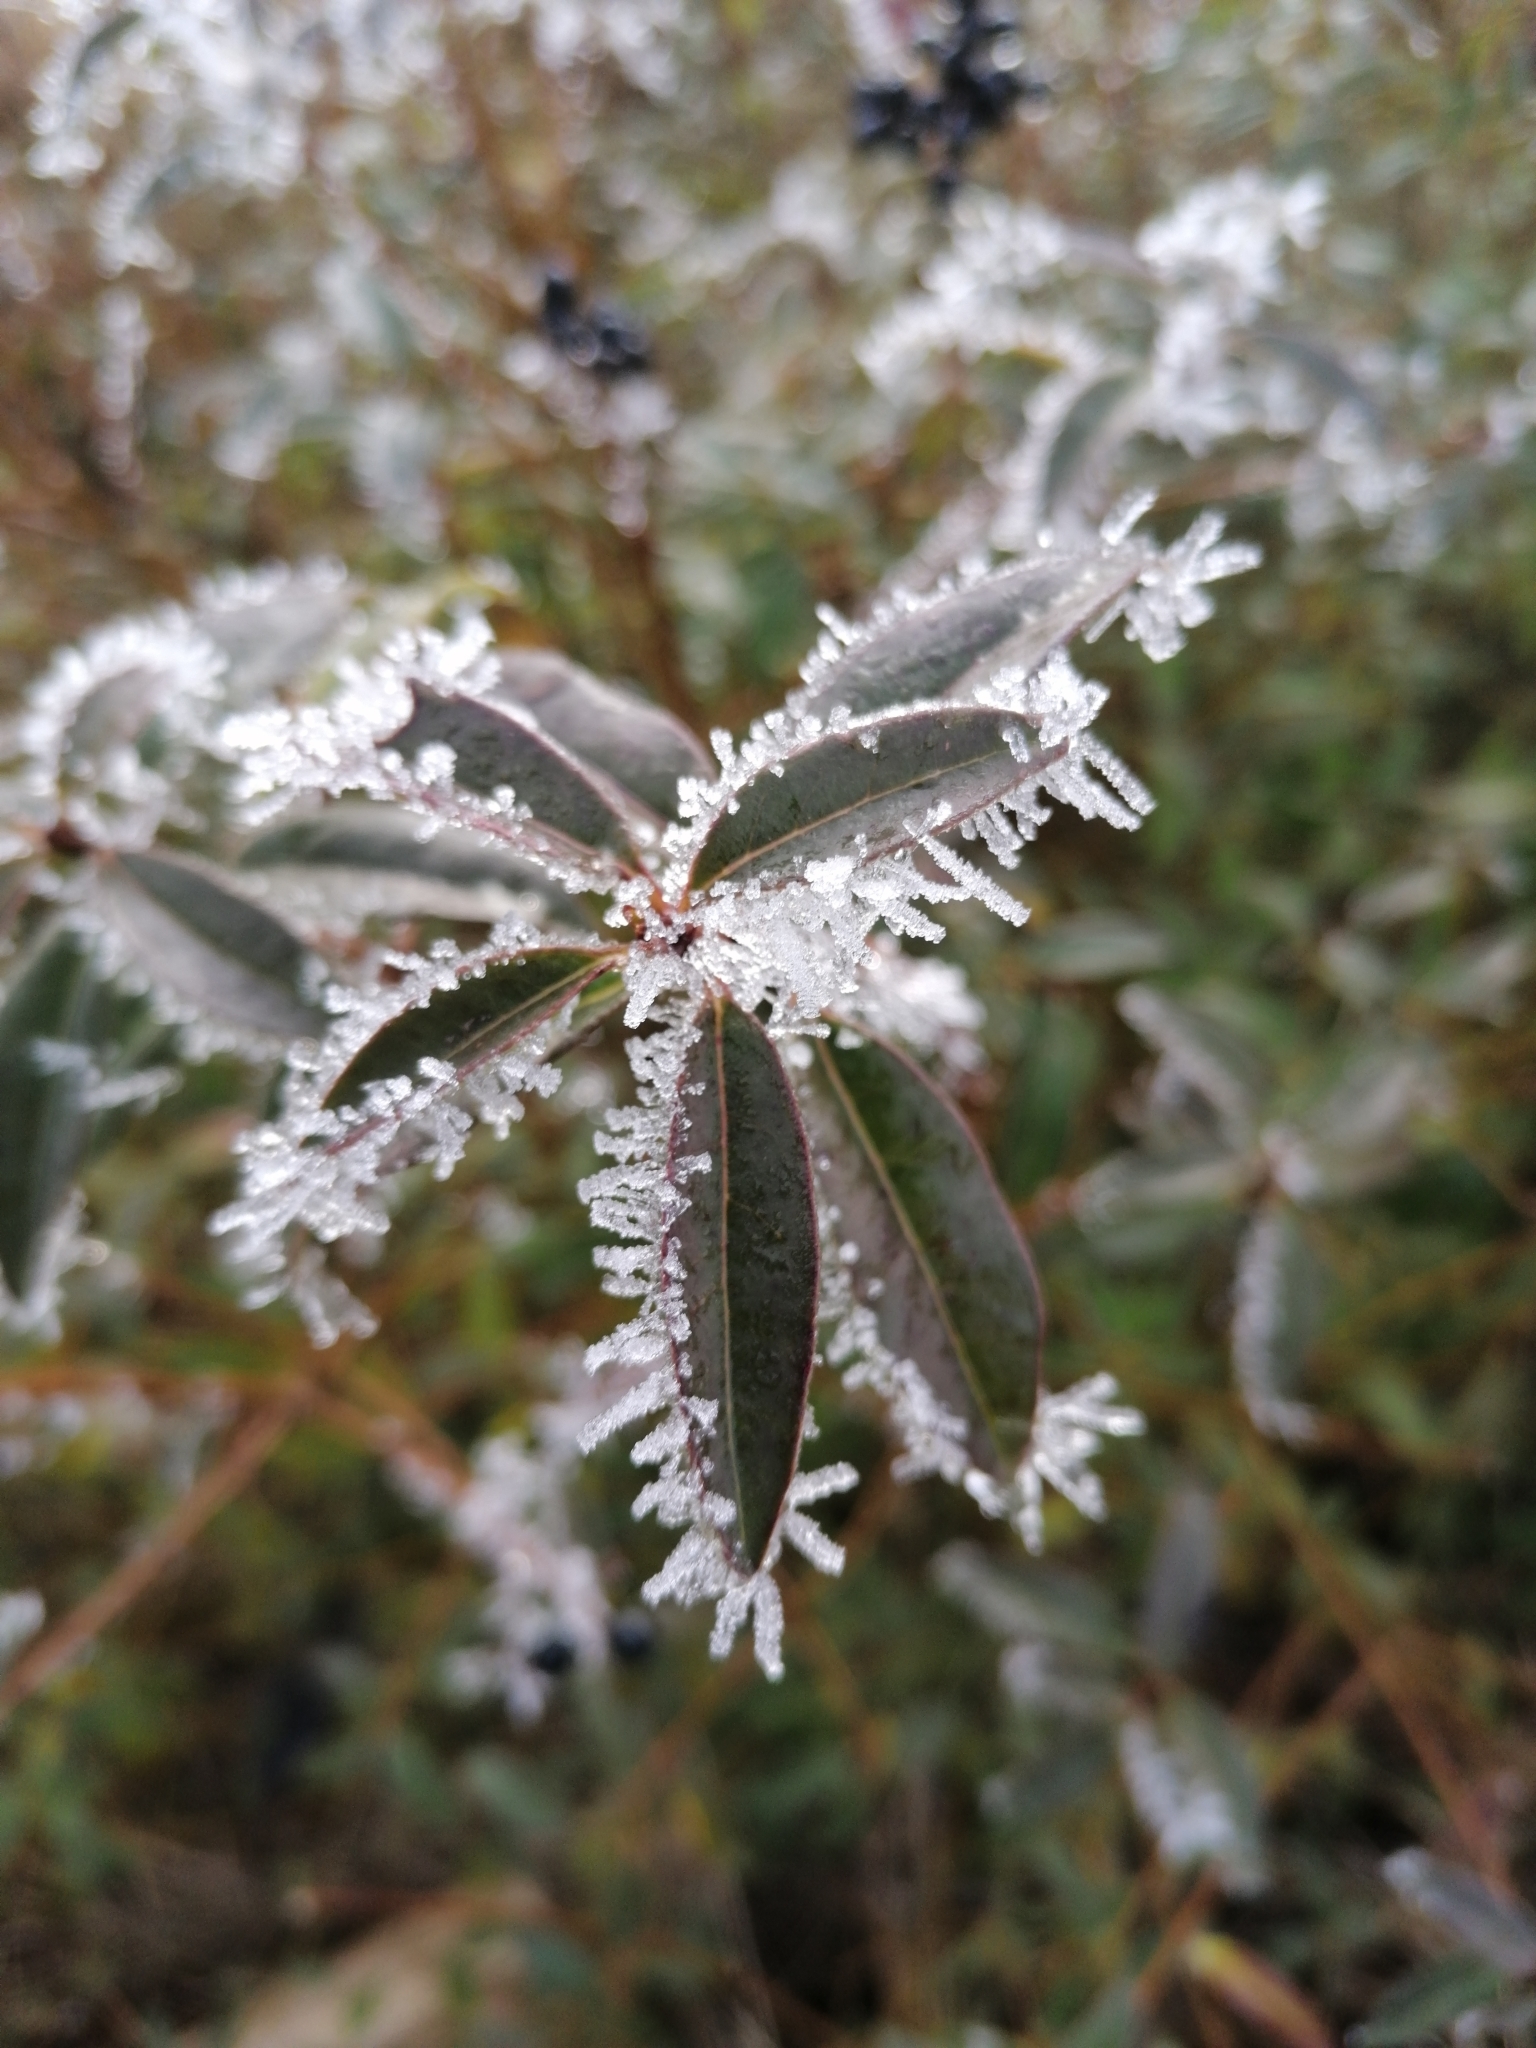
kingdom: Plantae
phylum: Tracheophyta
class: Magnoliopsida
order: Lamiales
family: Oleaceae
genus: Ligustrum
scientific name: Ligustrum vulgare
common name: Wild privet
